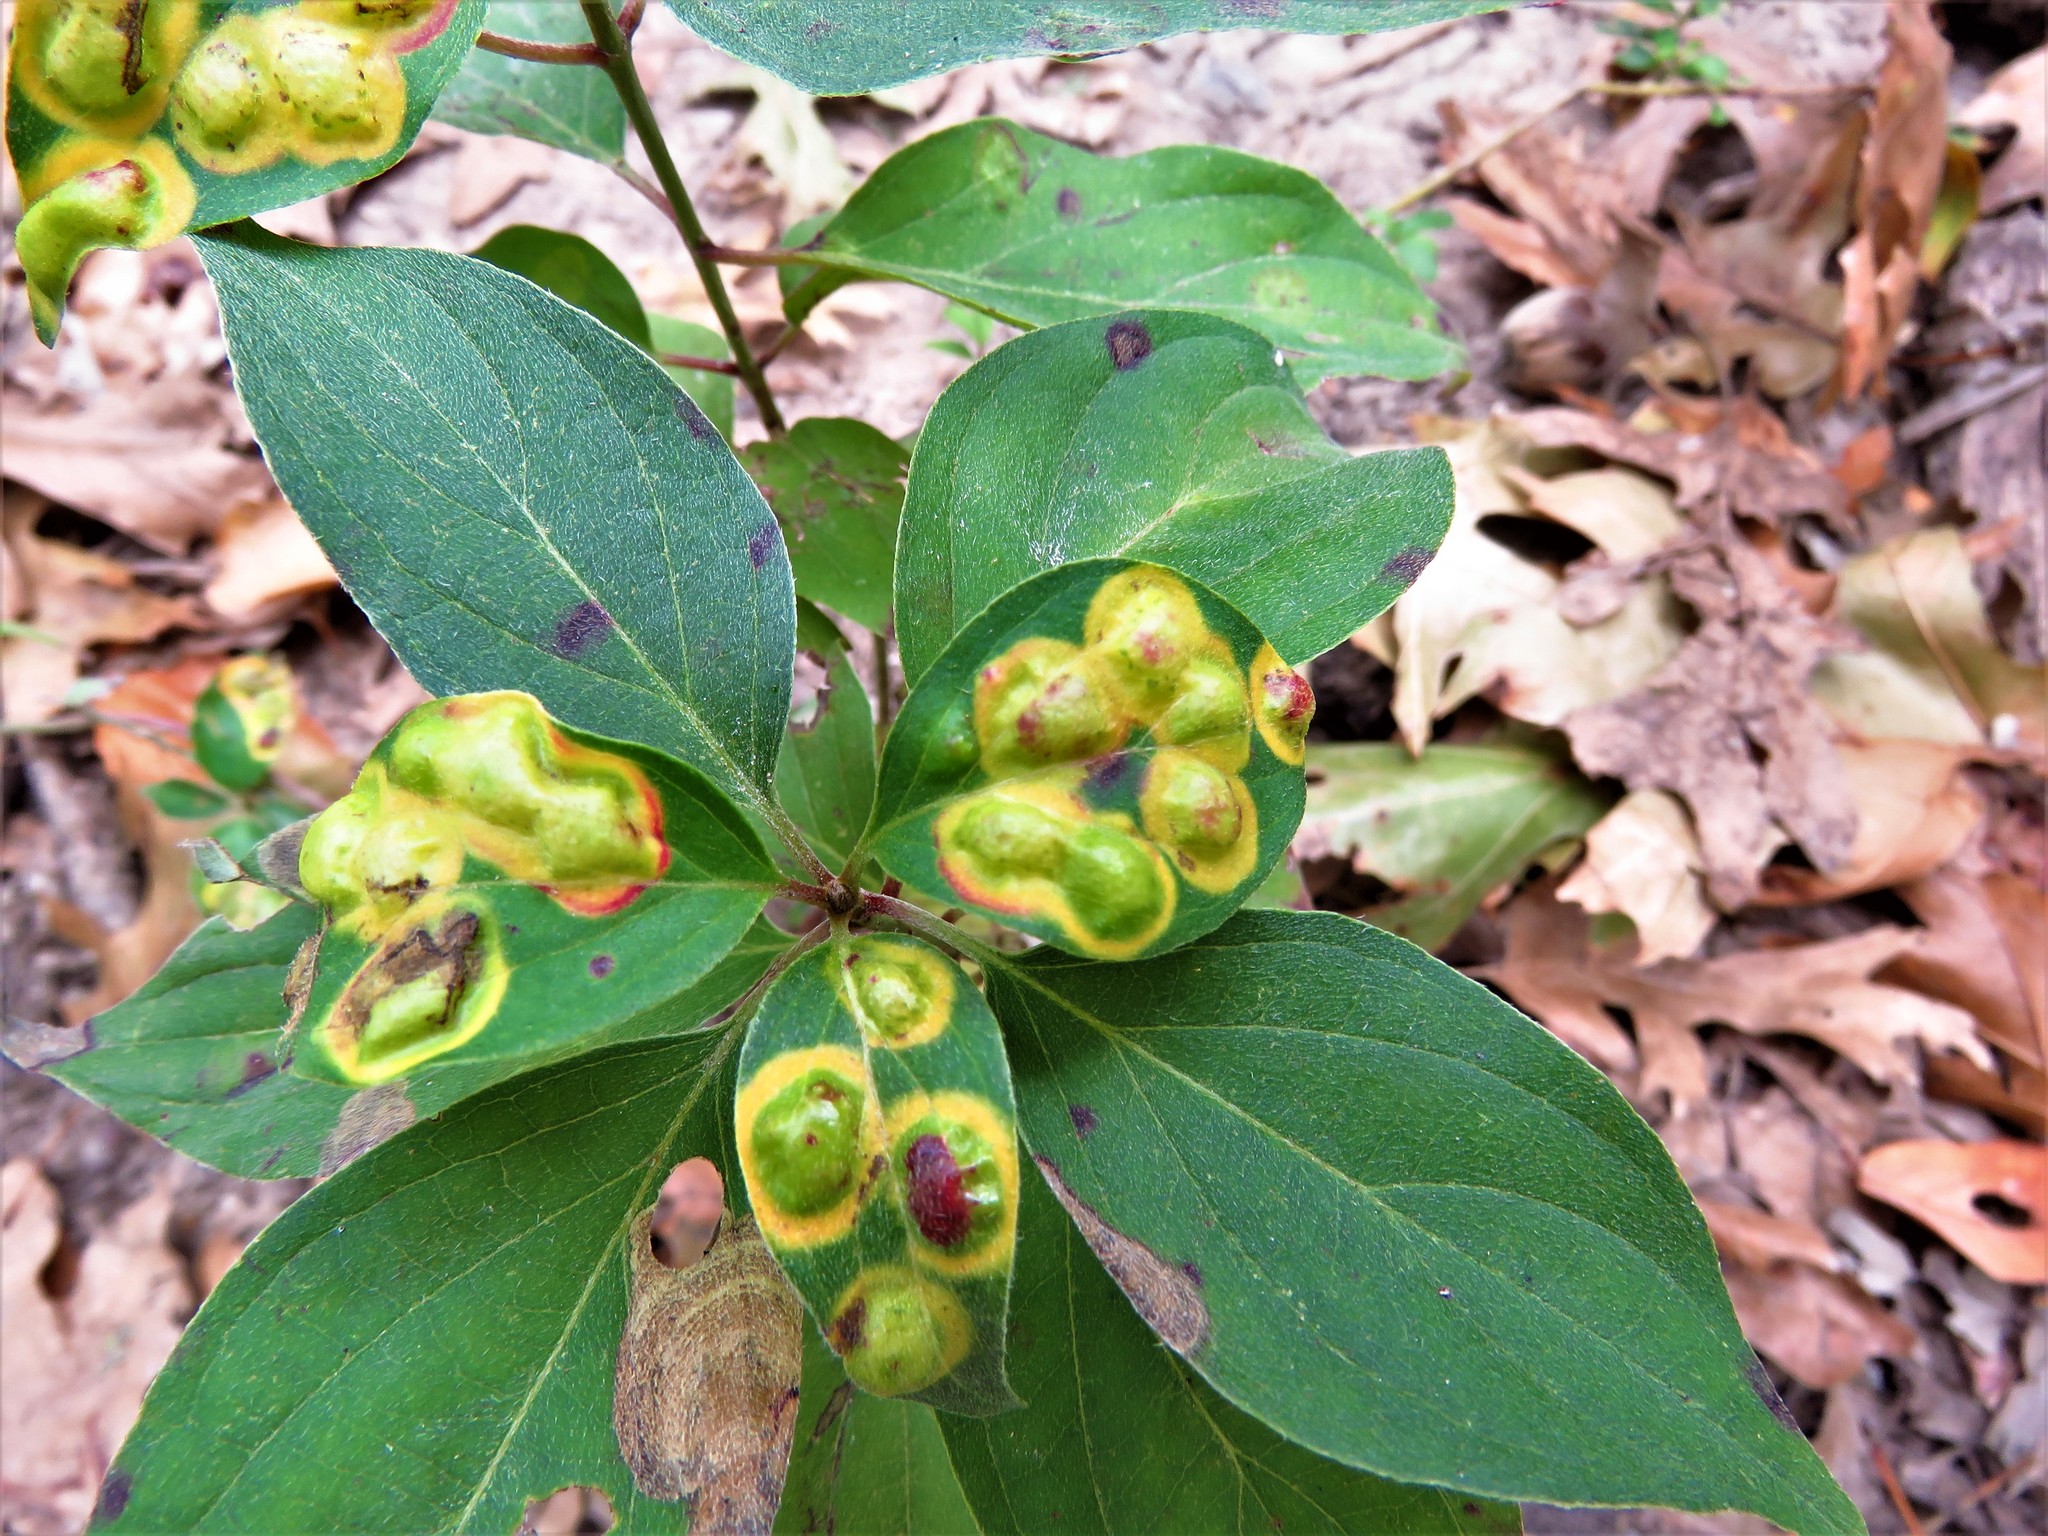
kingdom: Animalia
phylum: Arthropoda
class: Insecta
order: Diptera
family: Cecidomyiidae
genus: Parallelodiplosis
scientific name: Parallelodiplosis subtruncata
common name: Dogwood eyespot gall midge
